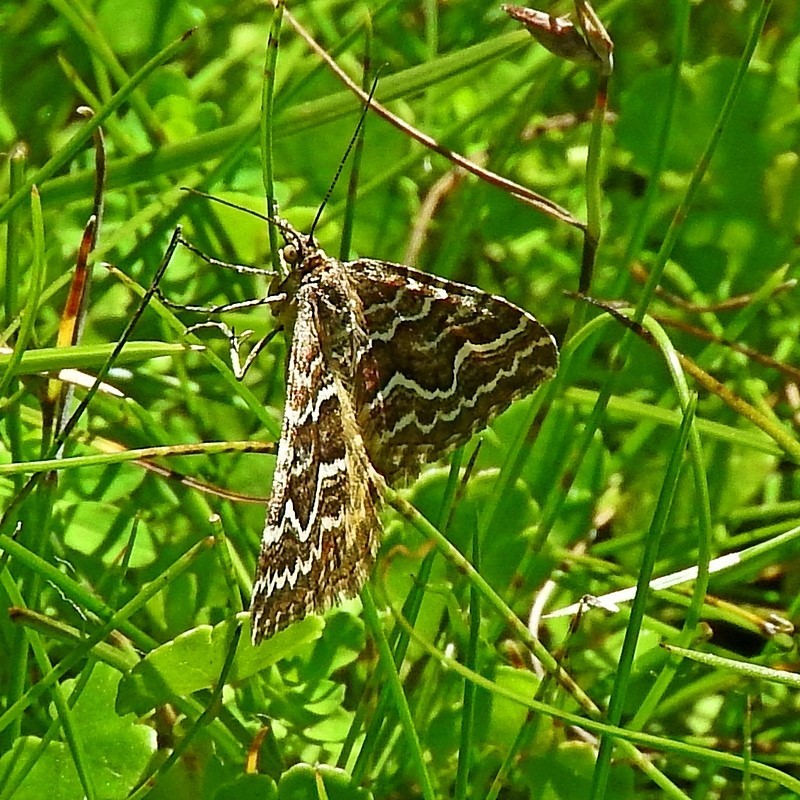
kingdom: Animalia
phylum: Arthropoda
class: Insecta
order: Lepidoptera
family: Geometridae
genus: Chrysolarentia
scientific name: Chrysolarentia heliacaria
